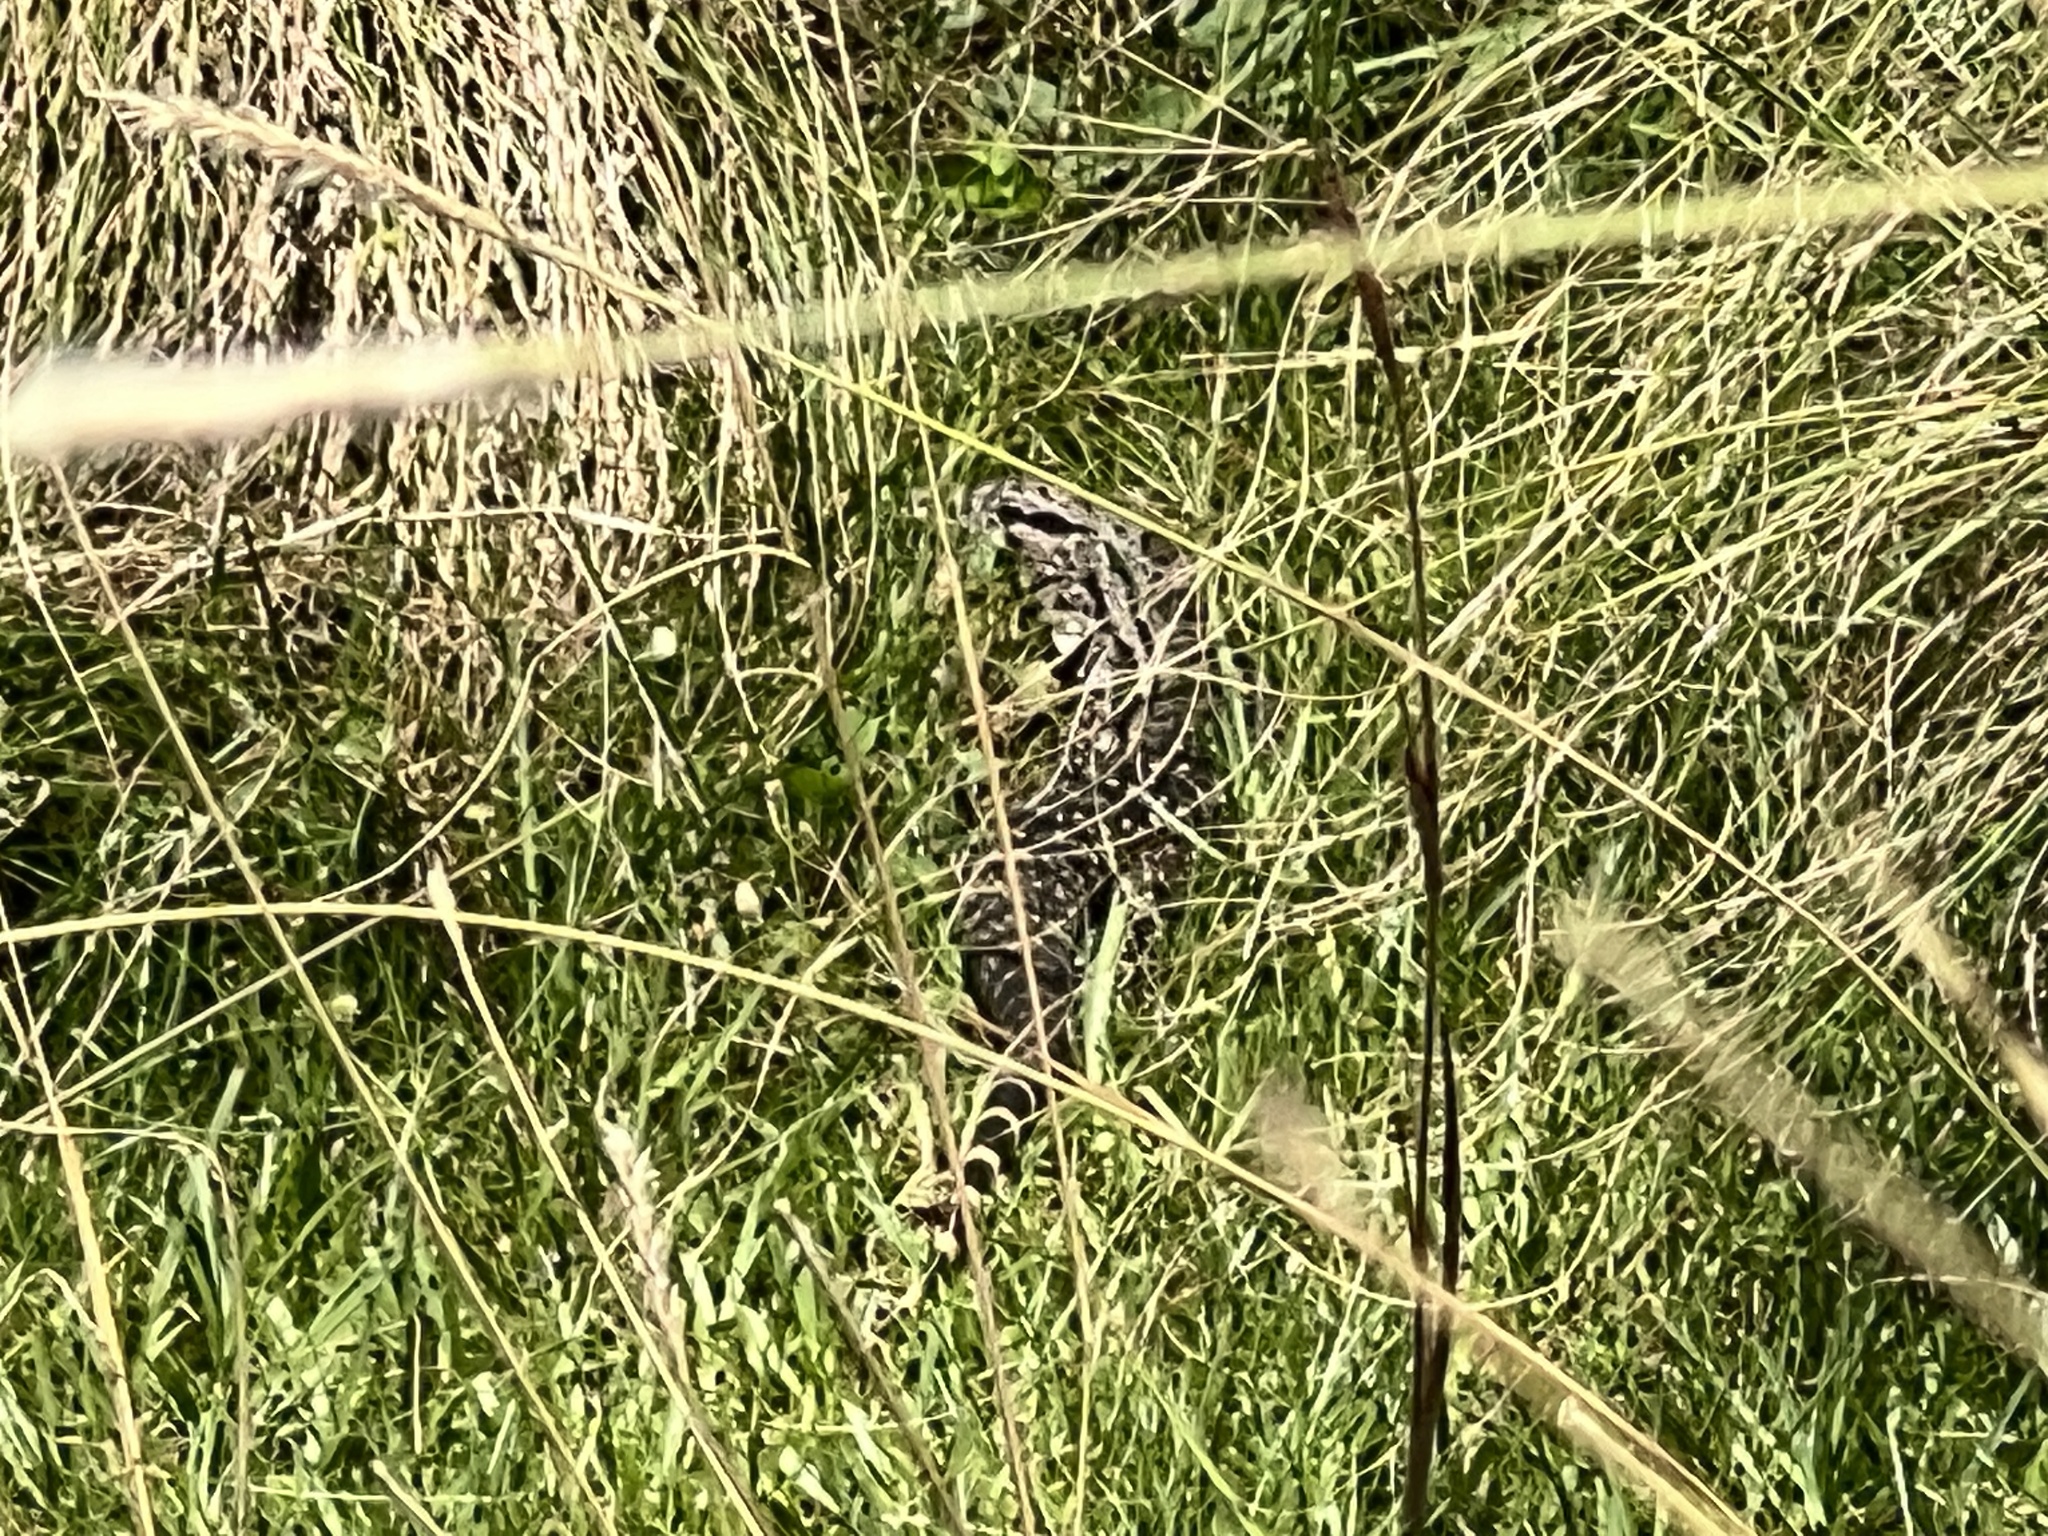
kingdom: Animalia
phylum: Chordata
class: Squamata
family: Teiidae
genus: Salvator
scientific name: Salvator merianae
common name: Argentine black and white tegu
